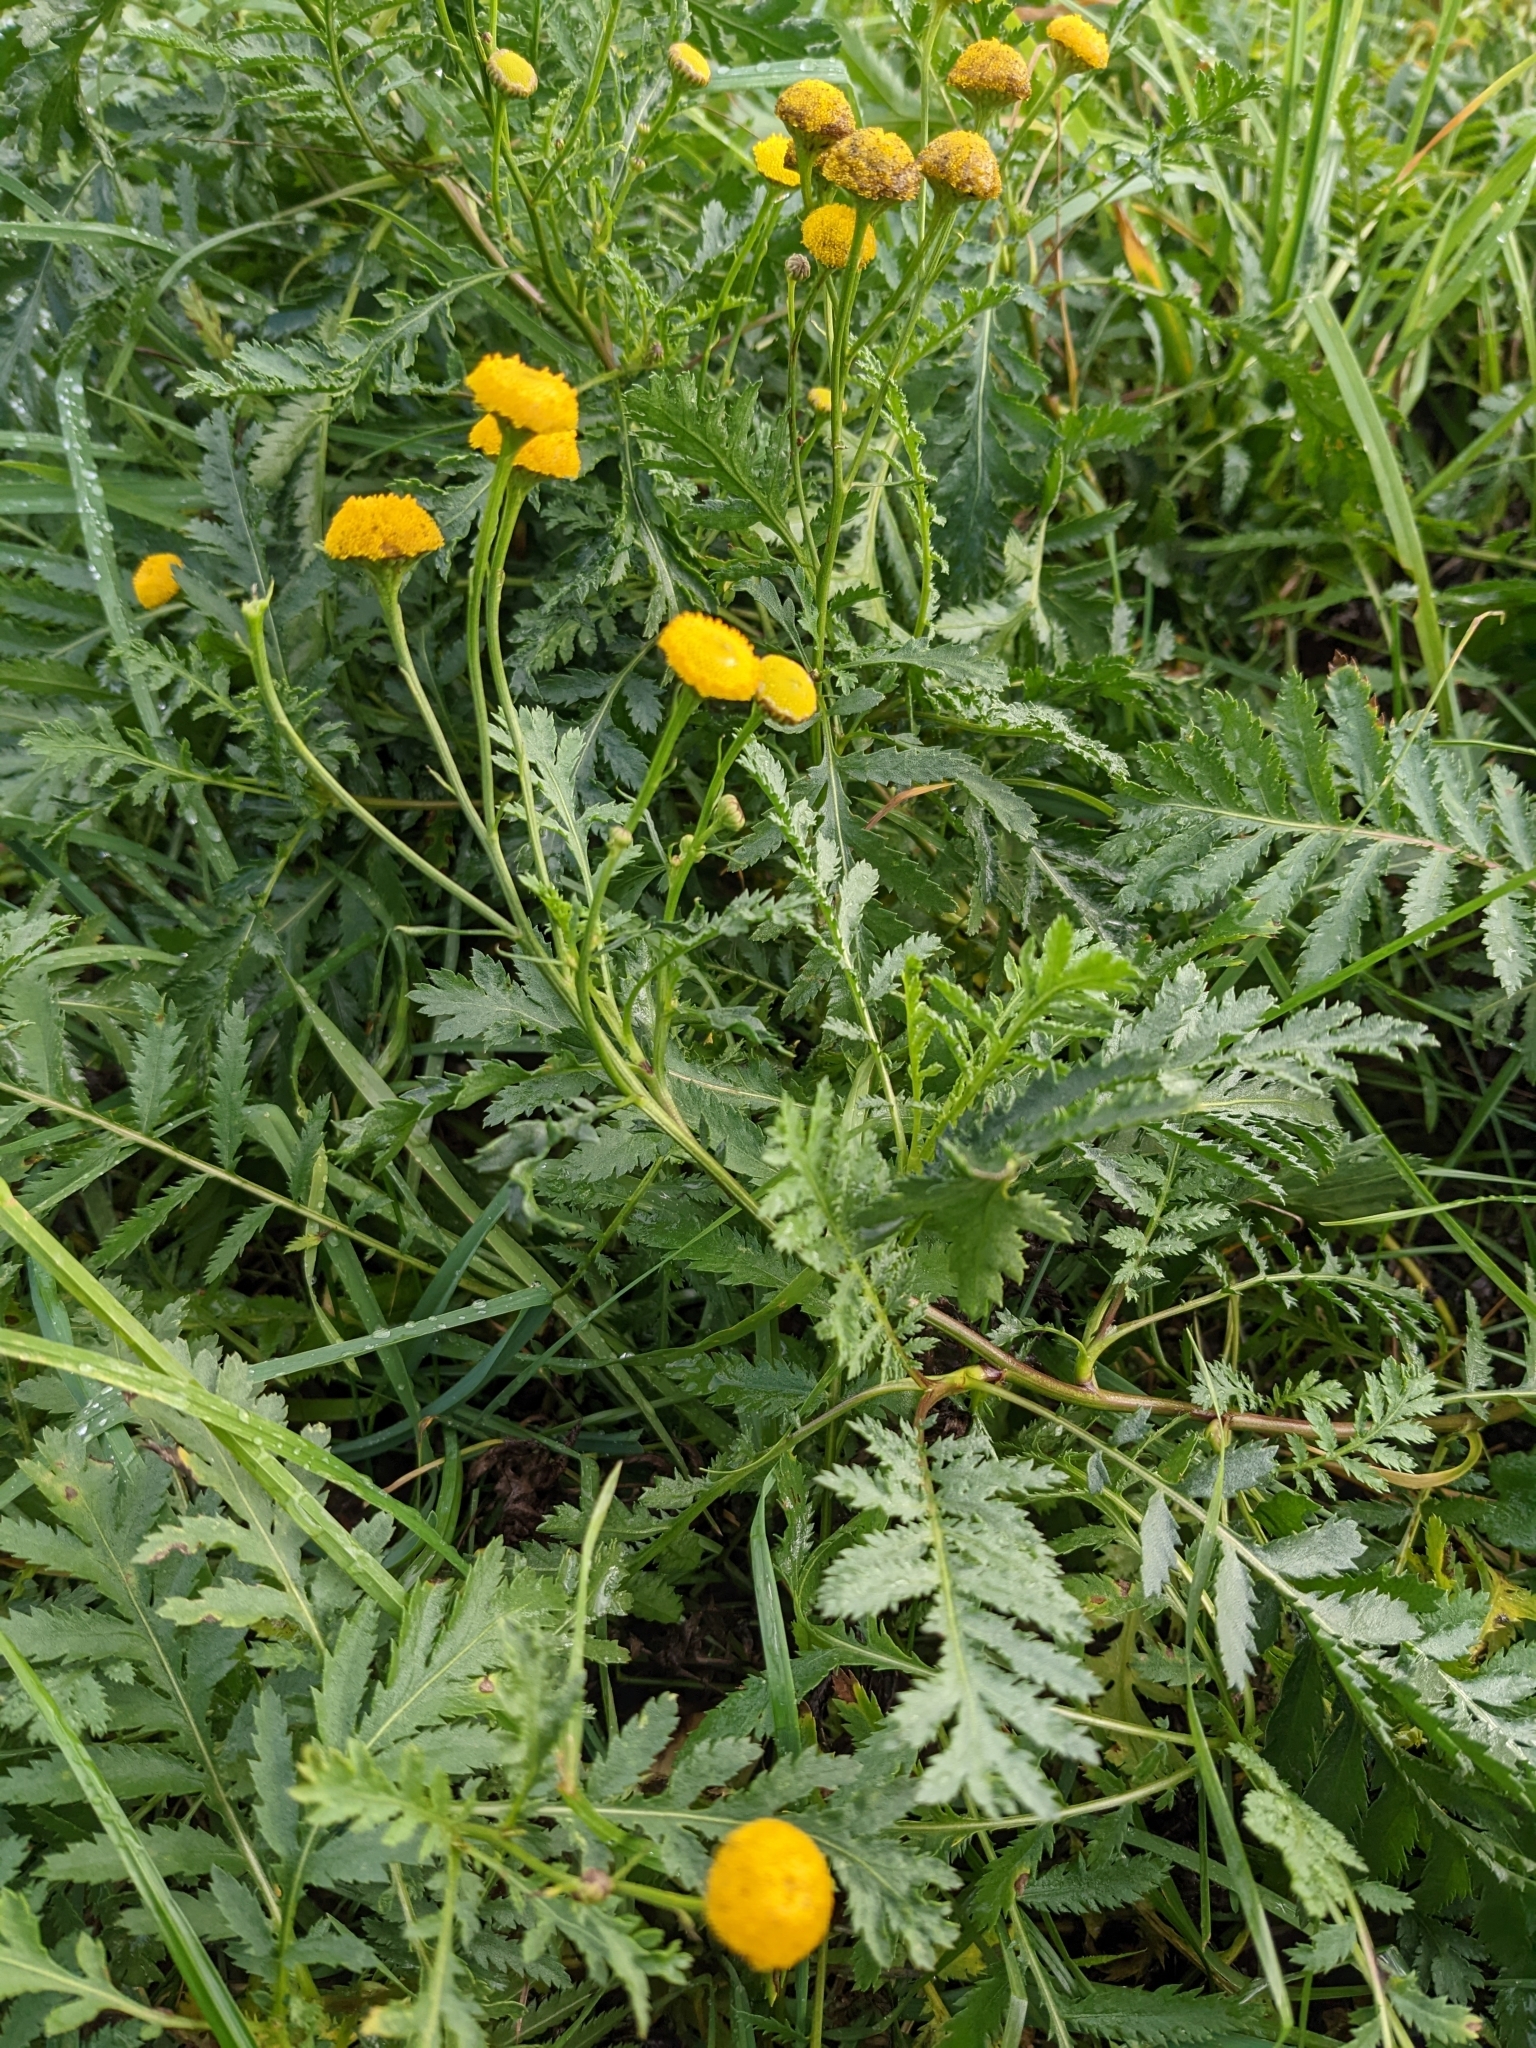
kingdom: Plantae
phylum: Tracheophyta
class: Magnoliopsida
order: Asterales
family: Asteraceae
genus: Tanacetum
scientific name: Tanacetum vulgare
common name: Common tansy
